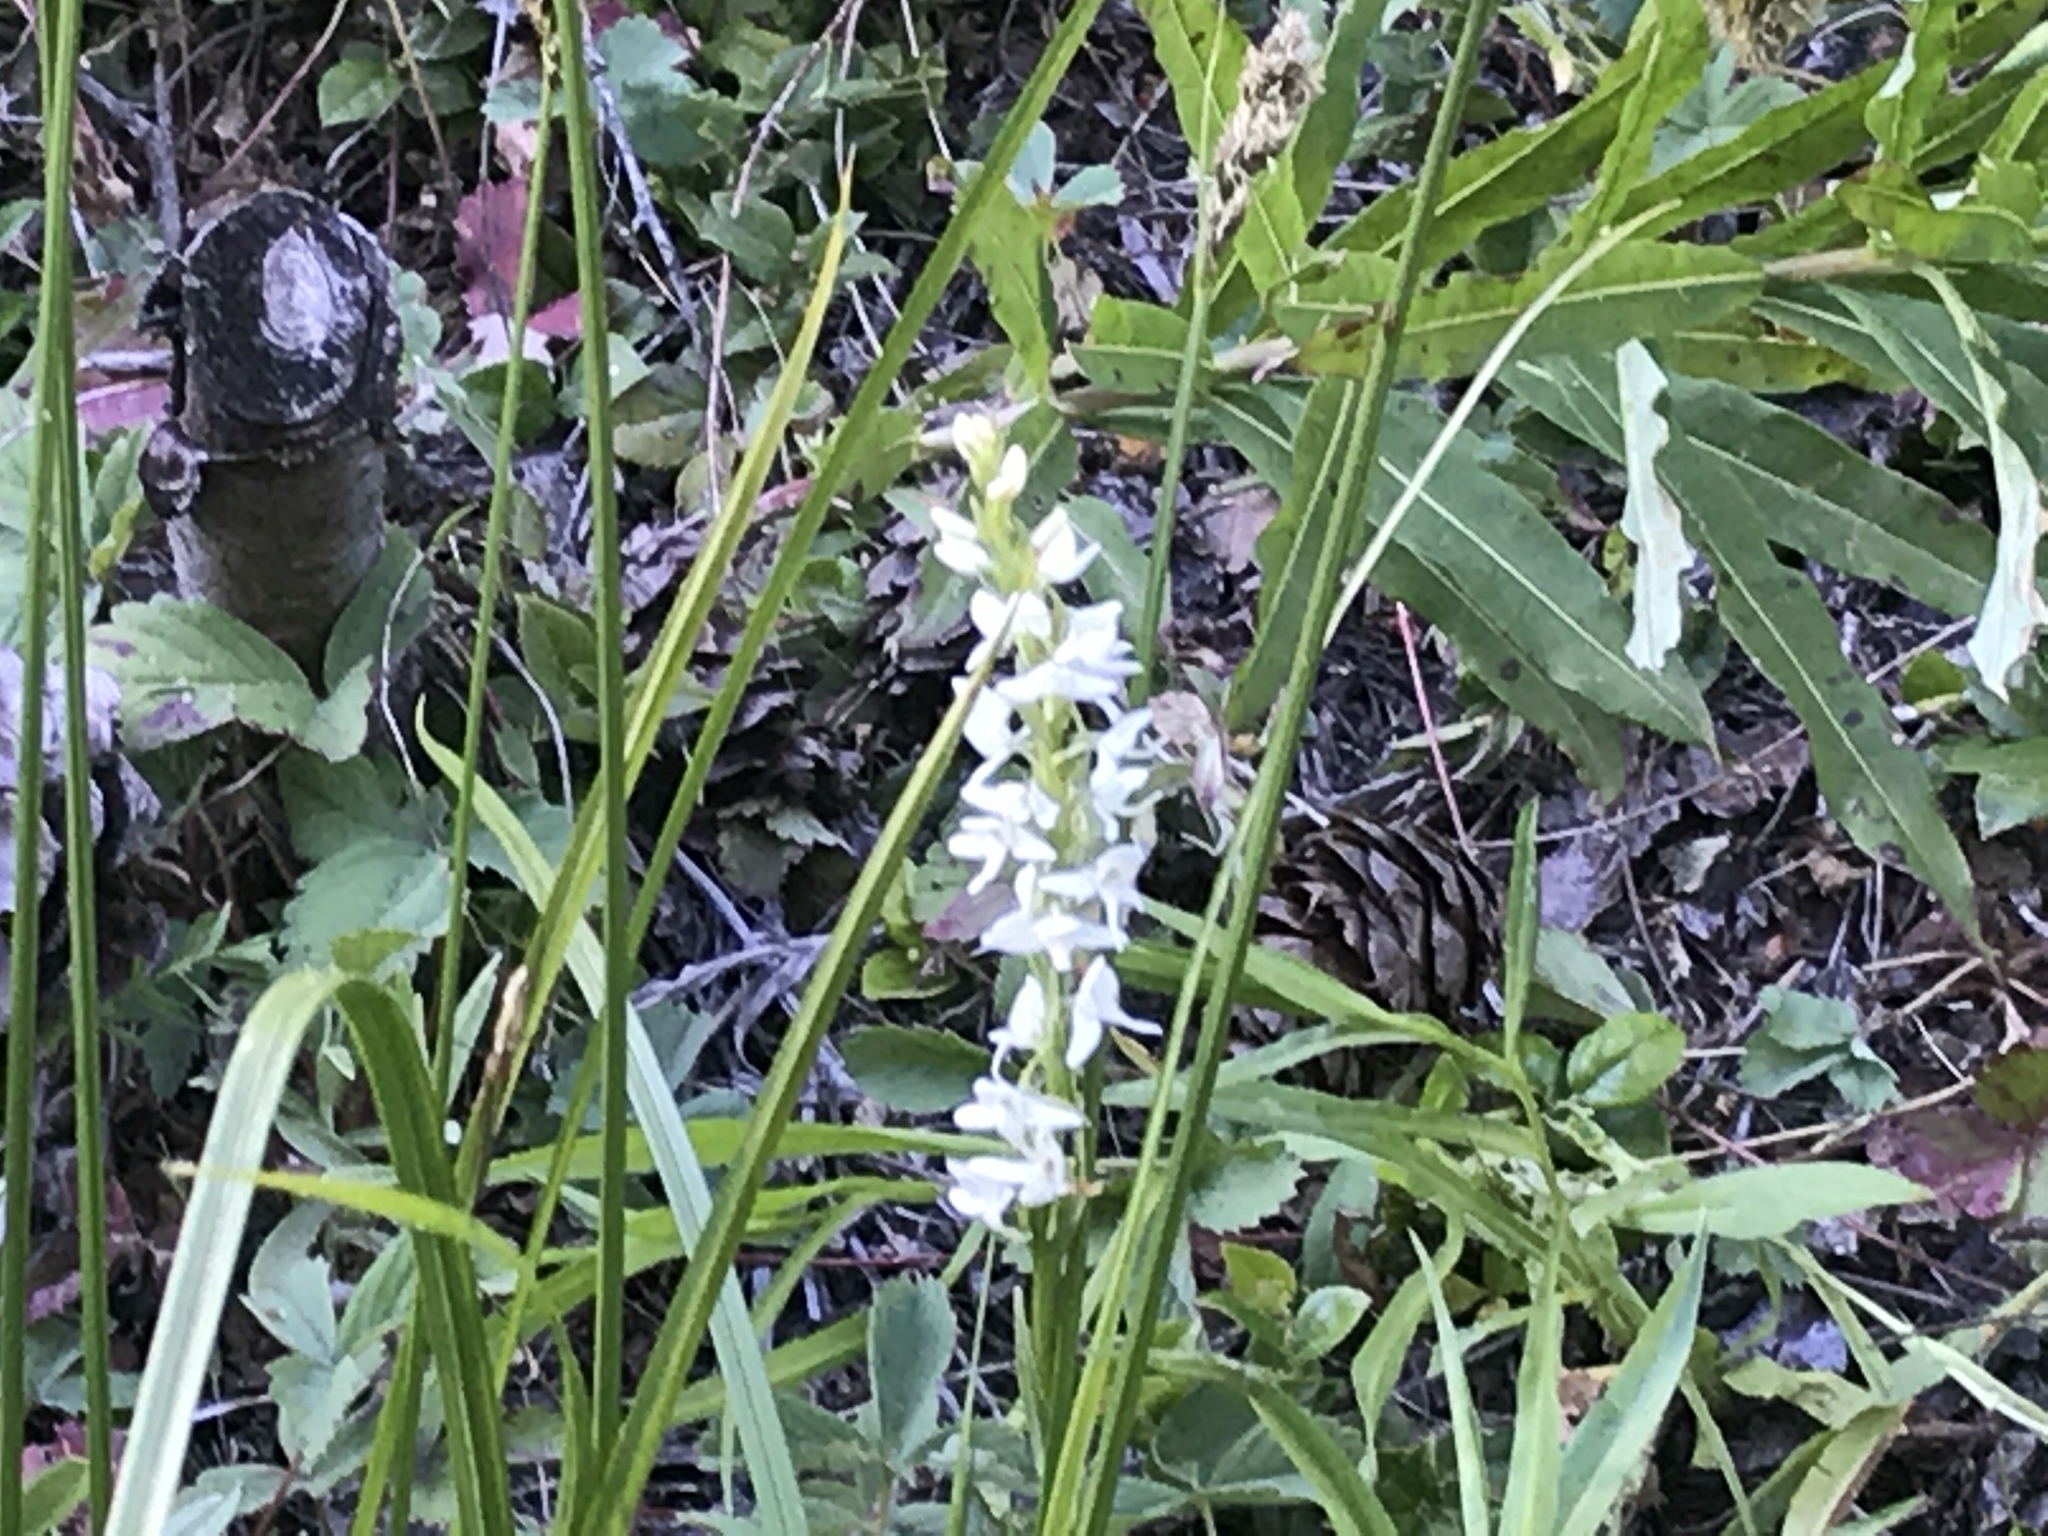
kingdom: Plantae
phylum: Tracheophyta
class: Liliopsida
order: Asparagales
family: Orchidaceae
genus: Platanthera
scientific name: Platanthera dilatata
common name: Bog candles
